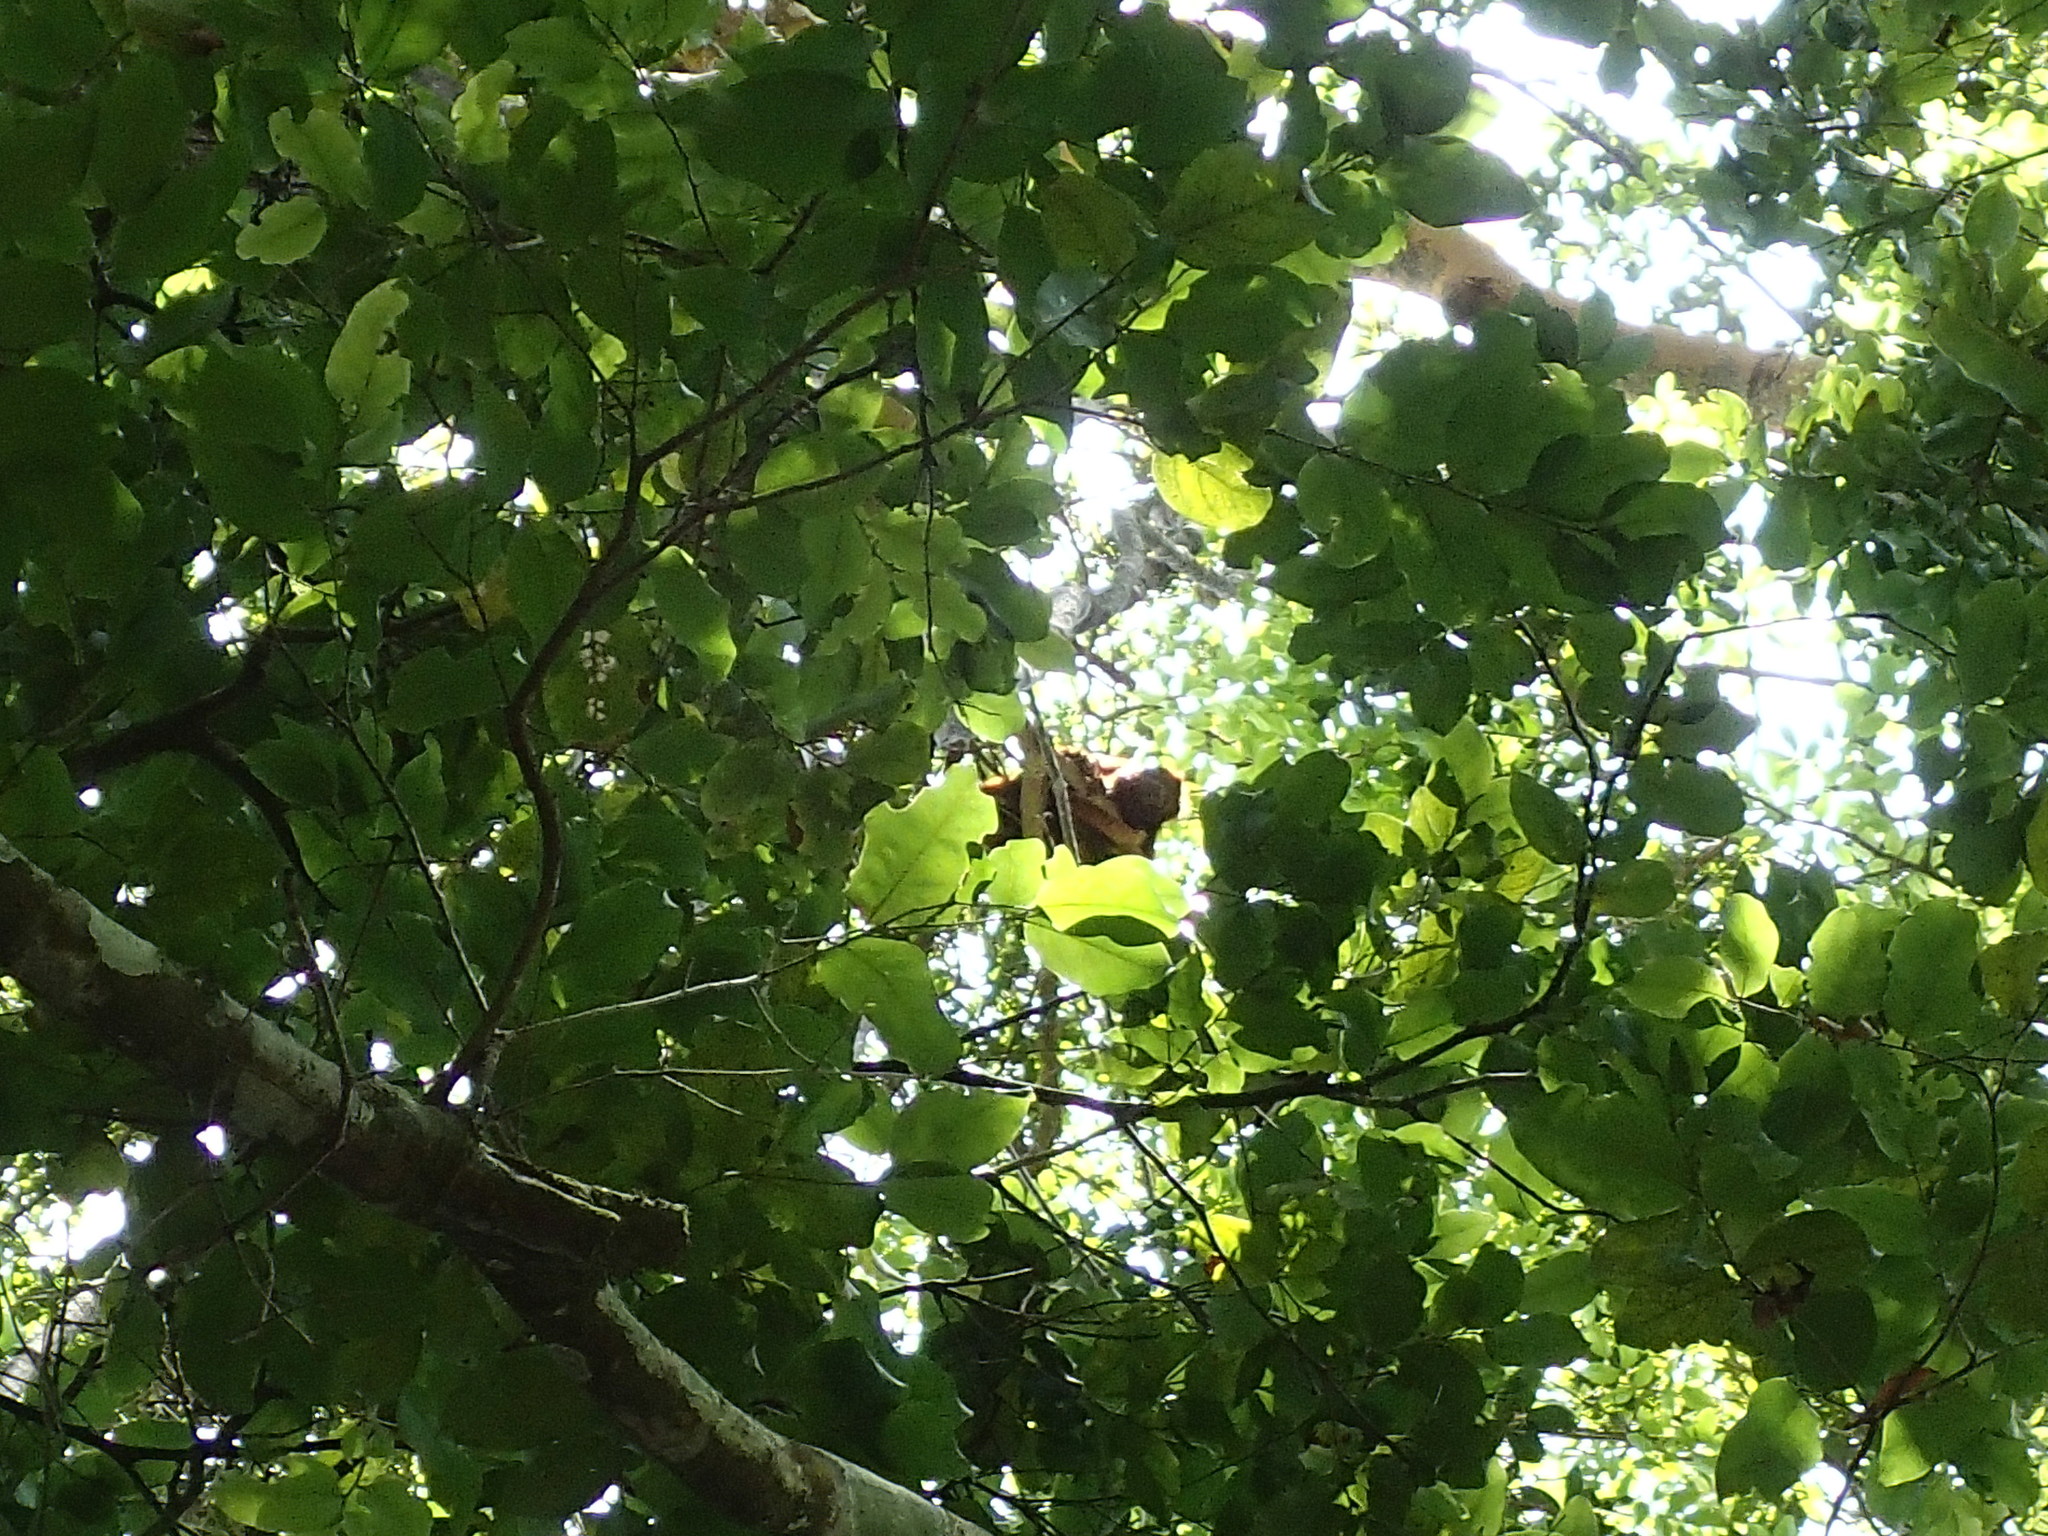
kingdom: Animalia
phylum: Chordata
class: Mammalia
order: Primates
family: Atelidae
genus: Alouatta
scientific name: Alouatta
